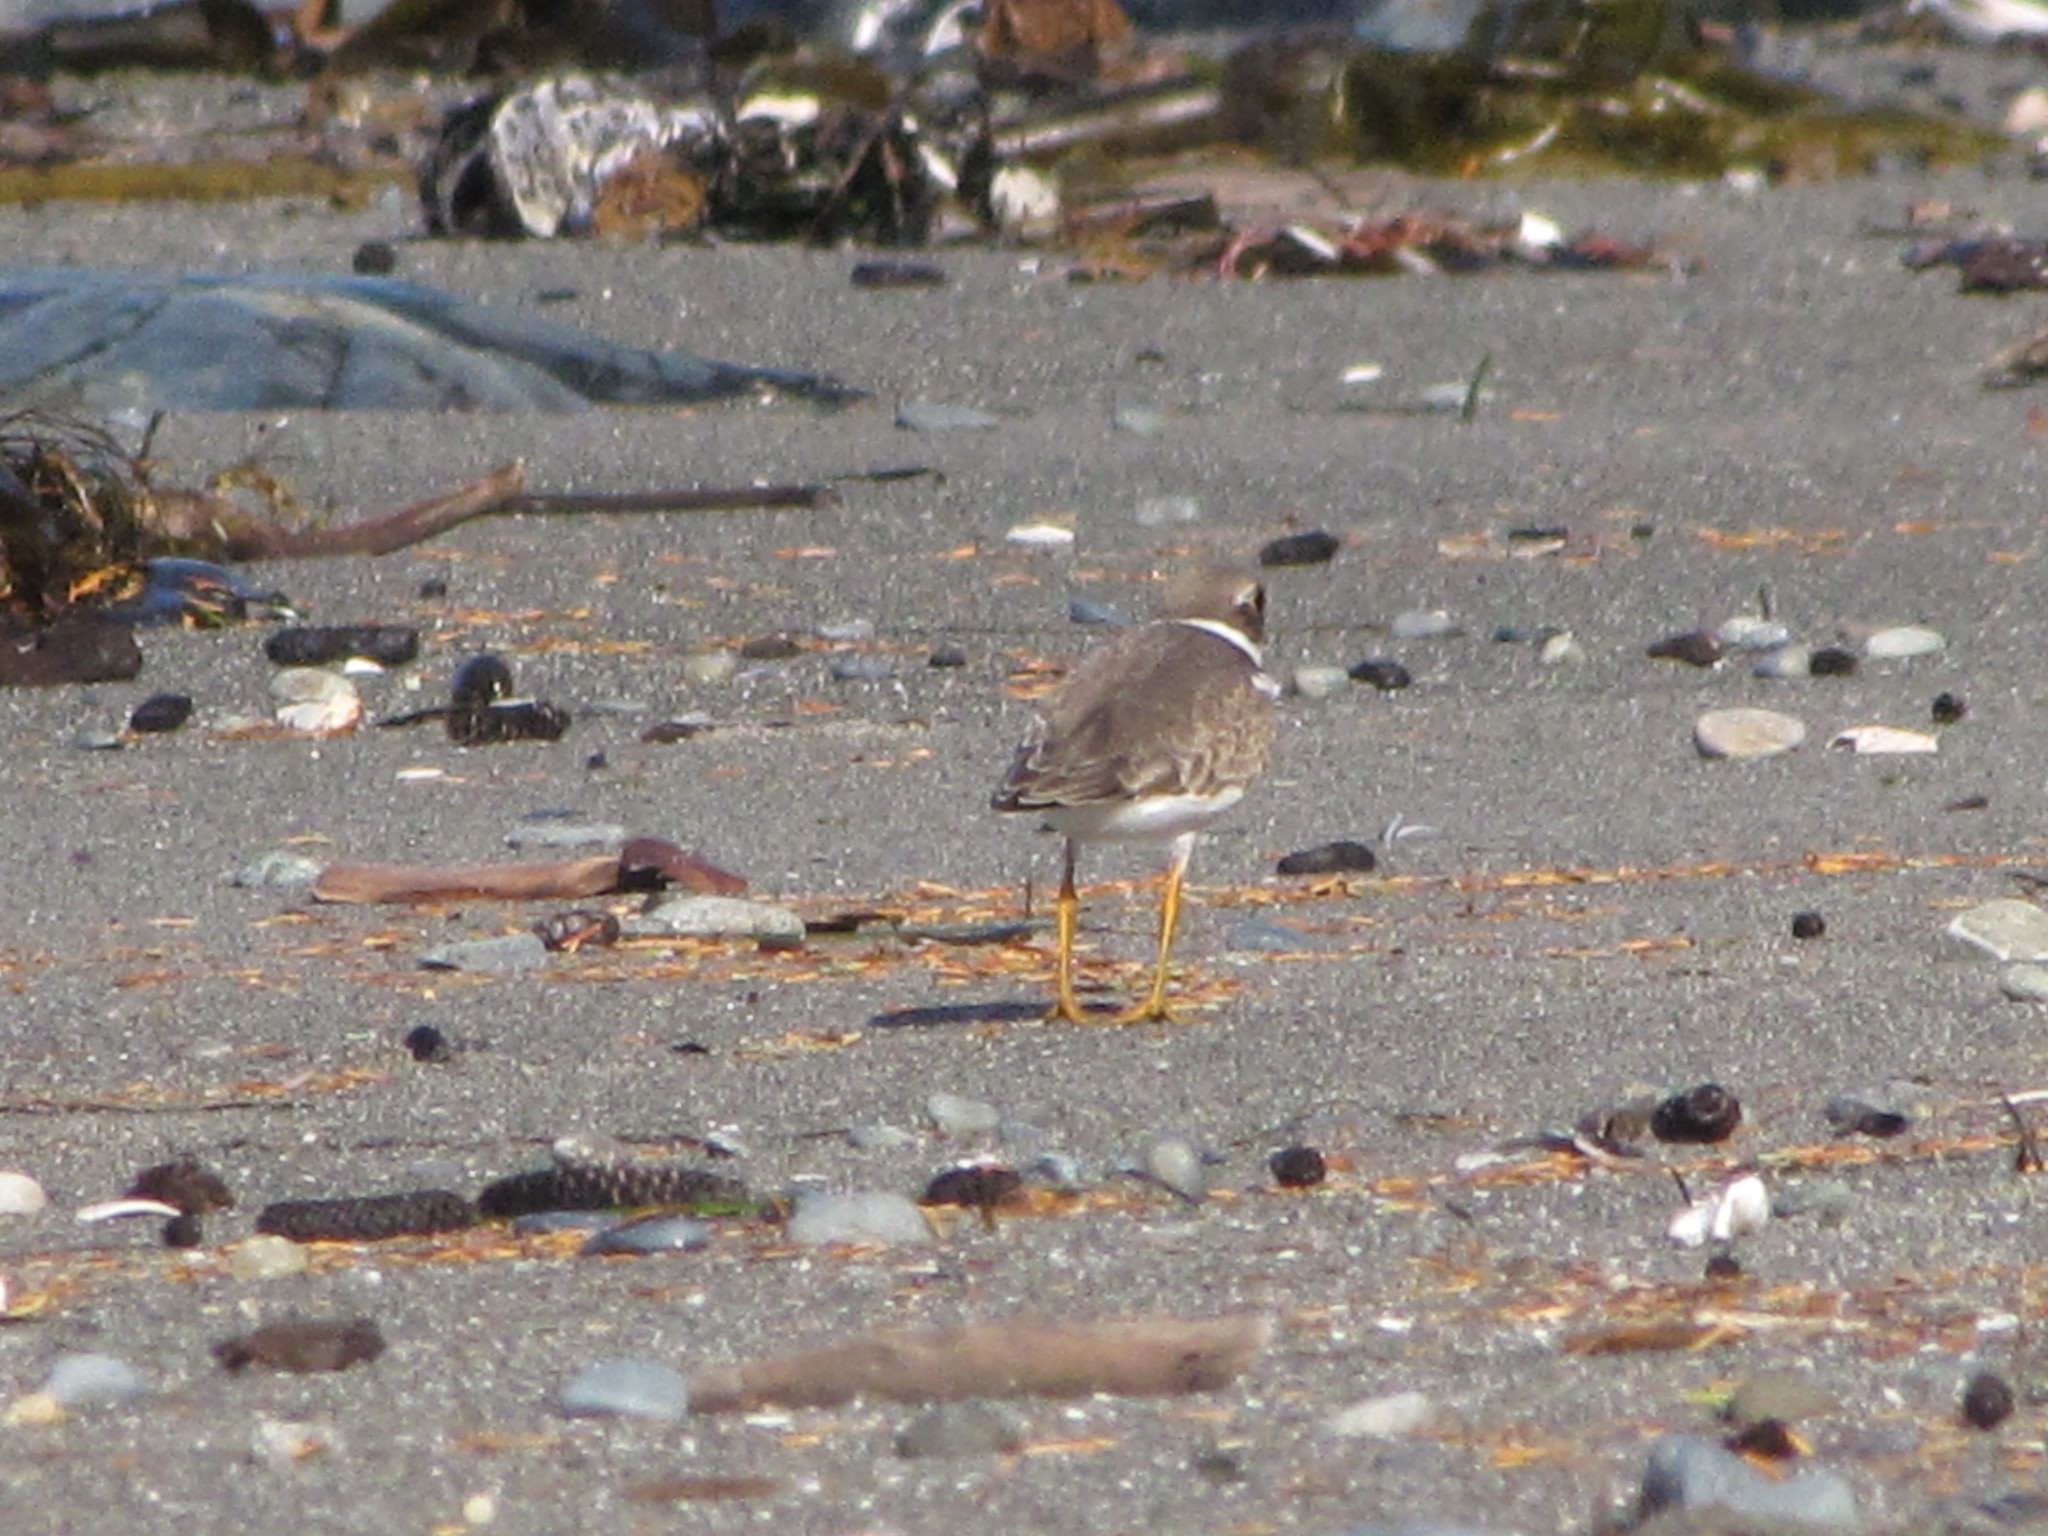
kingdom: Animalia
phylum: Chordata
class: Aves
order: Charadriiformes
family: Charadriidae
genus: Charadrius
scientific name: Charadrius semipalmatus
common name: Semipalmated plover
